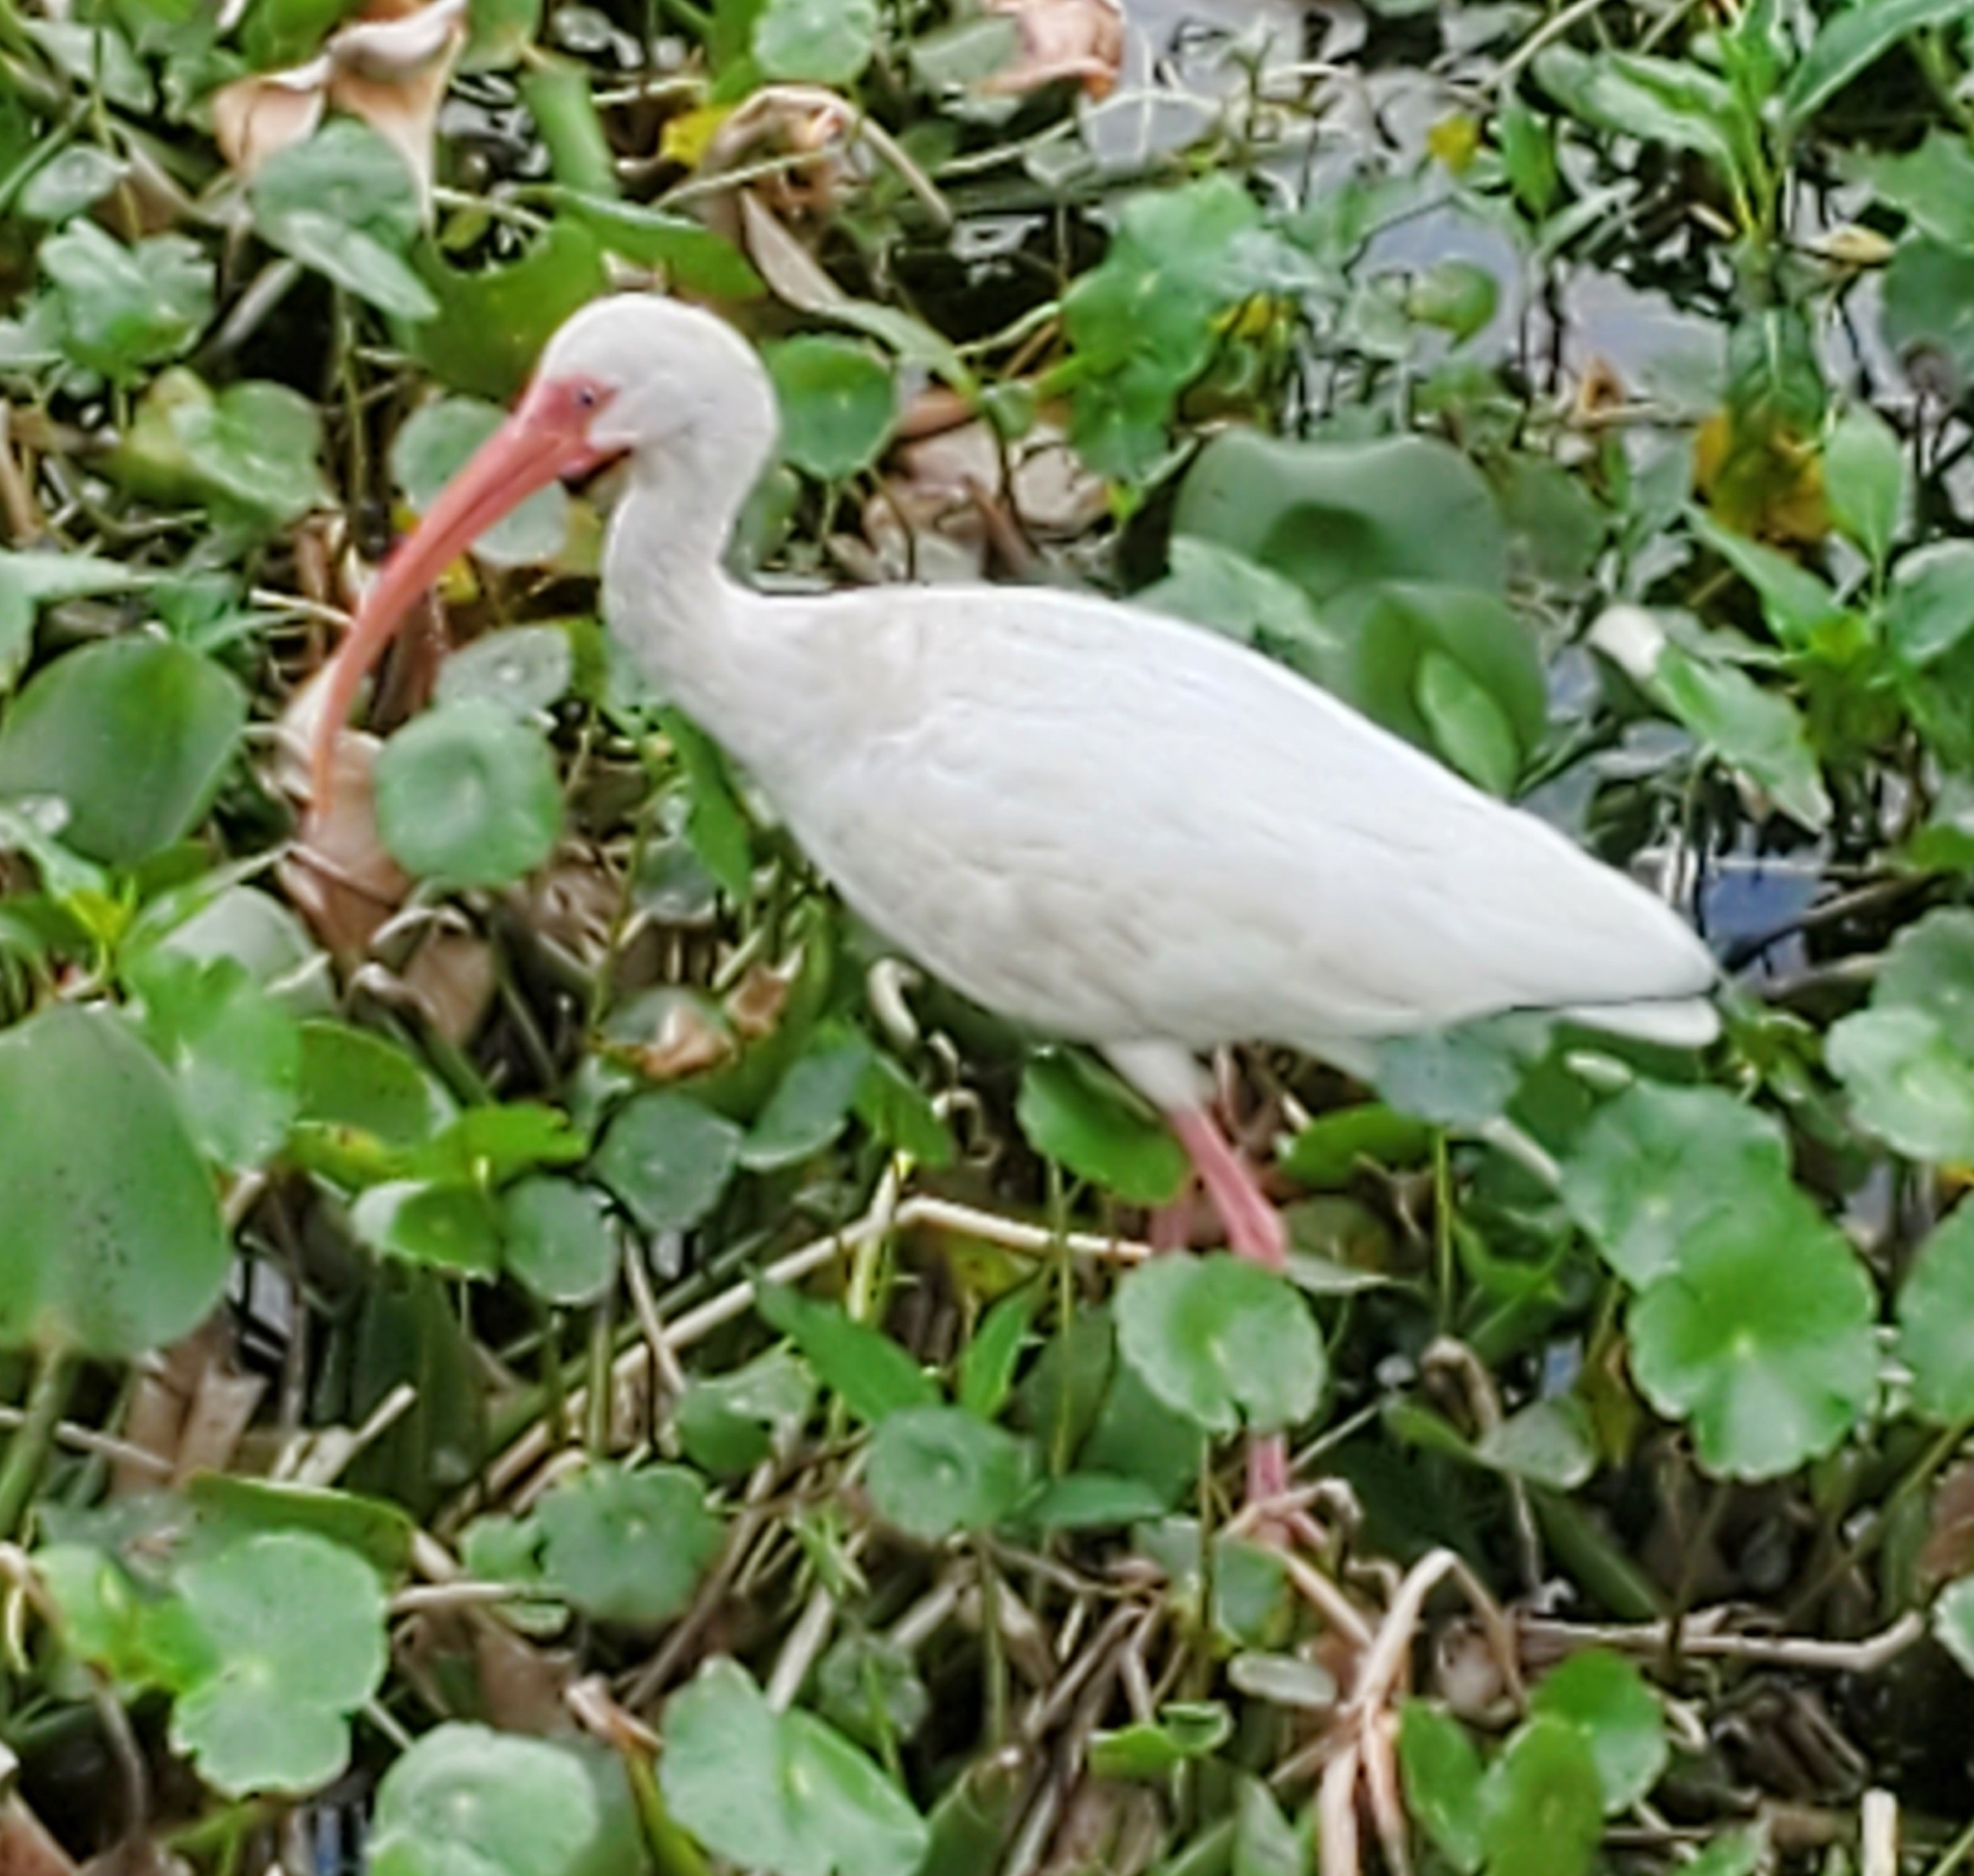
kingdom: Animalia
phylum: Chordata
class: Aves
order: Pelecaniformes
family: Threskiornithidae
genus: Eudocimus
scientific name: Eudocimus albus
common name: White ibis
